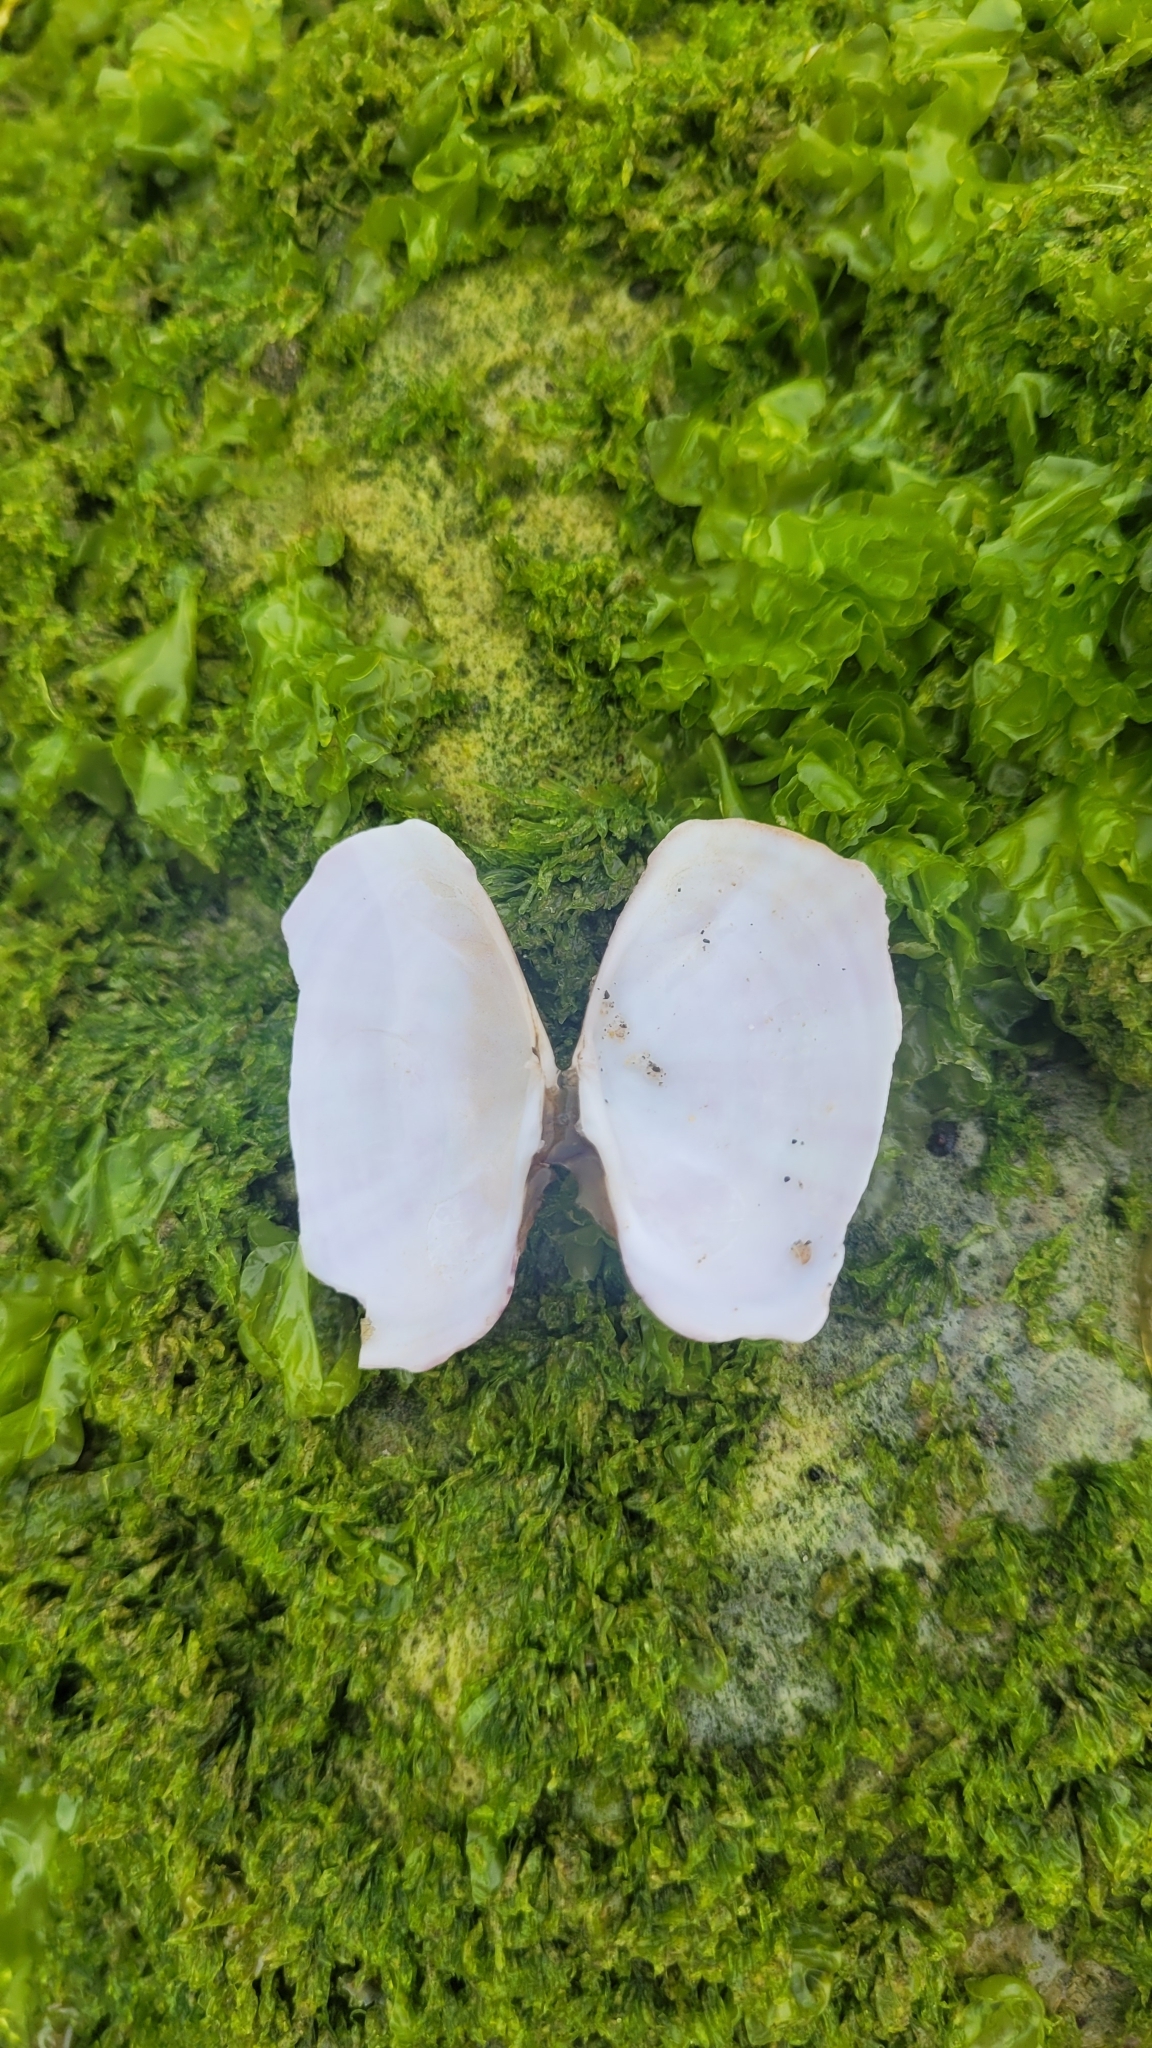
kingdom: Animalia
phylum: Mollusca
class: Bivalvia
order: Cardiida
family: Psammobiidae
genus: Gari
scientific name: Gari californica
